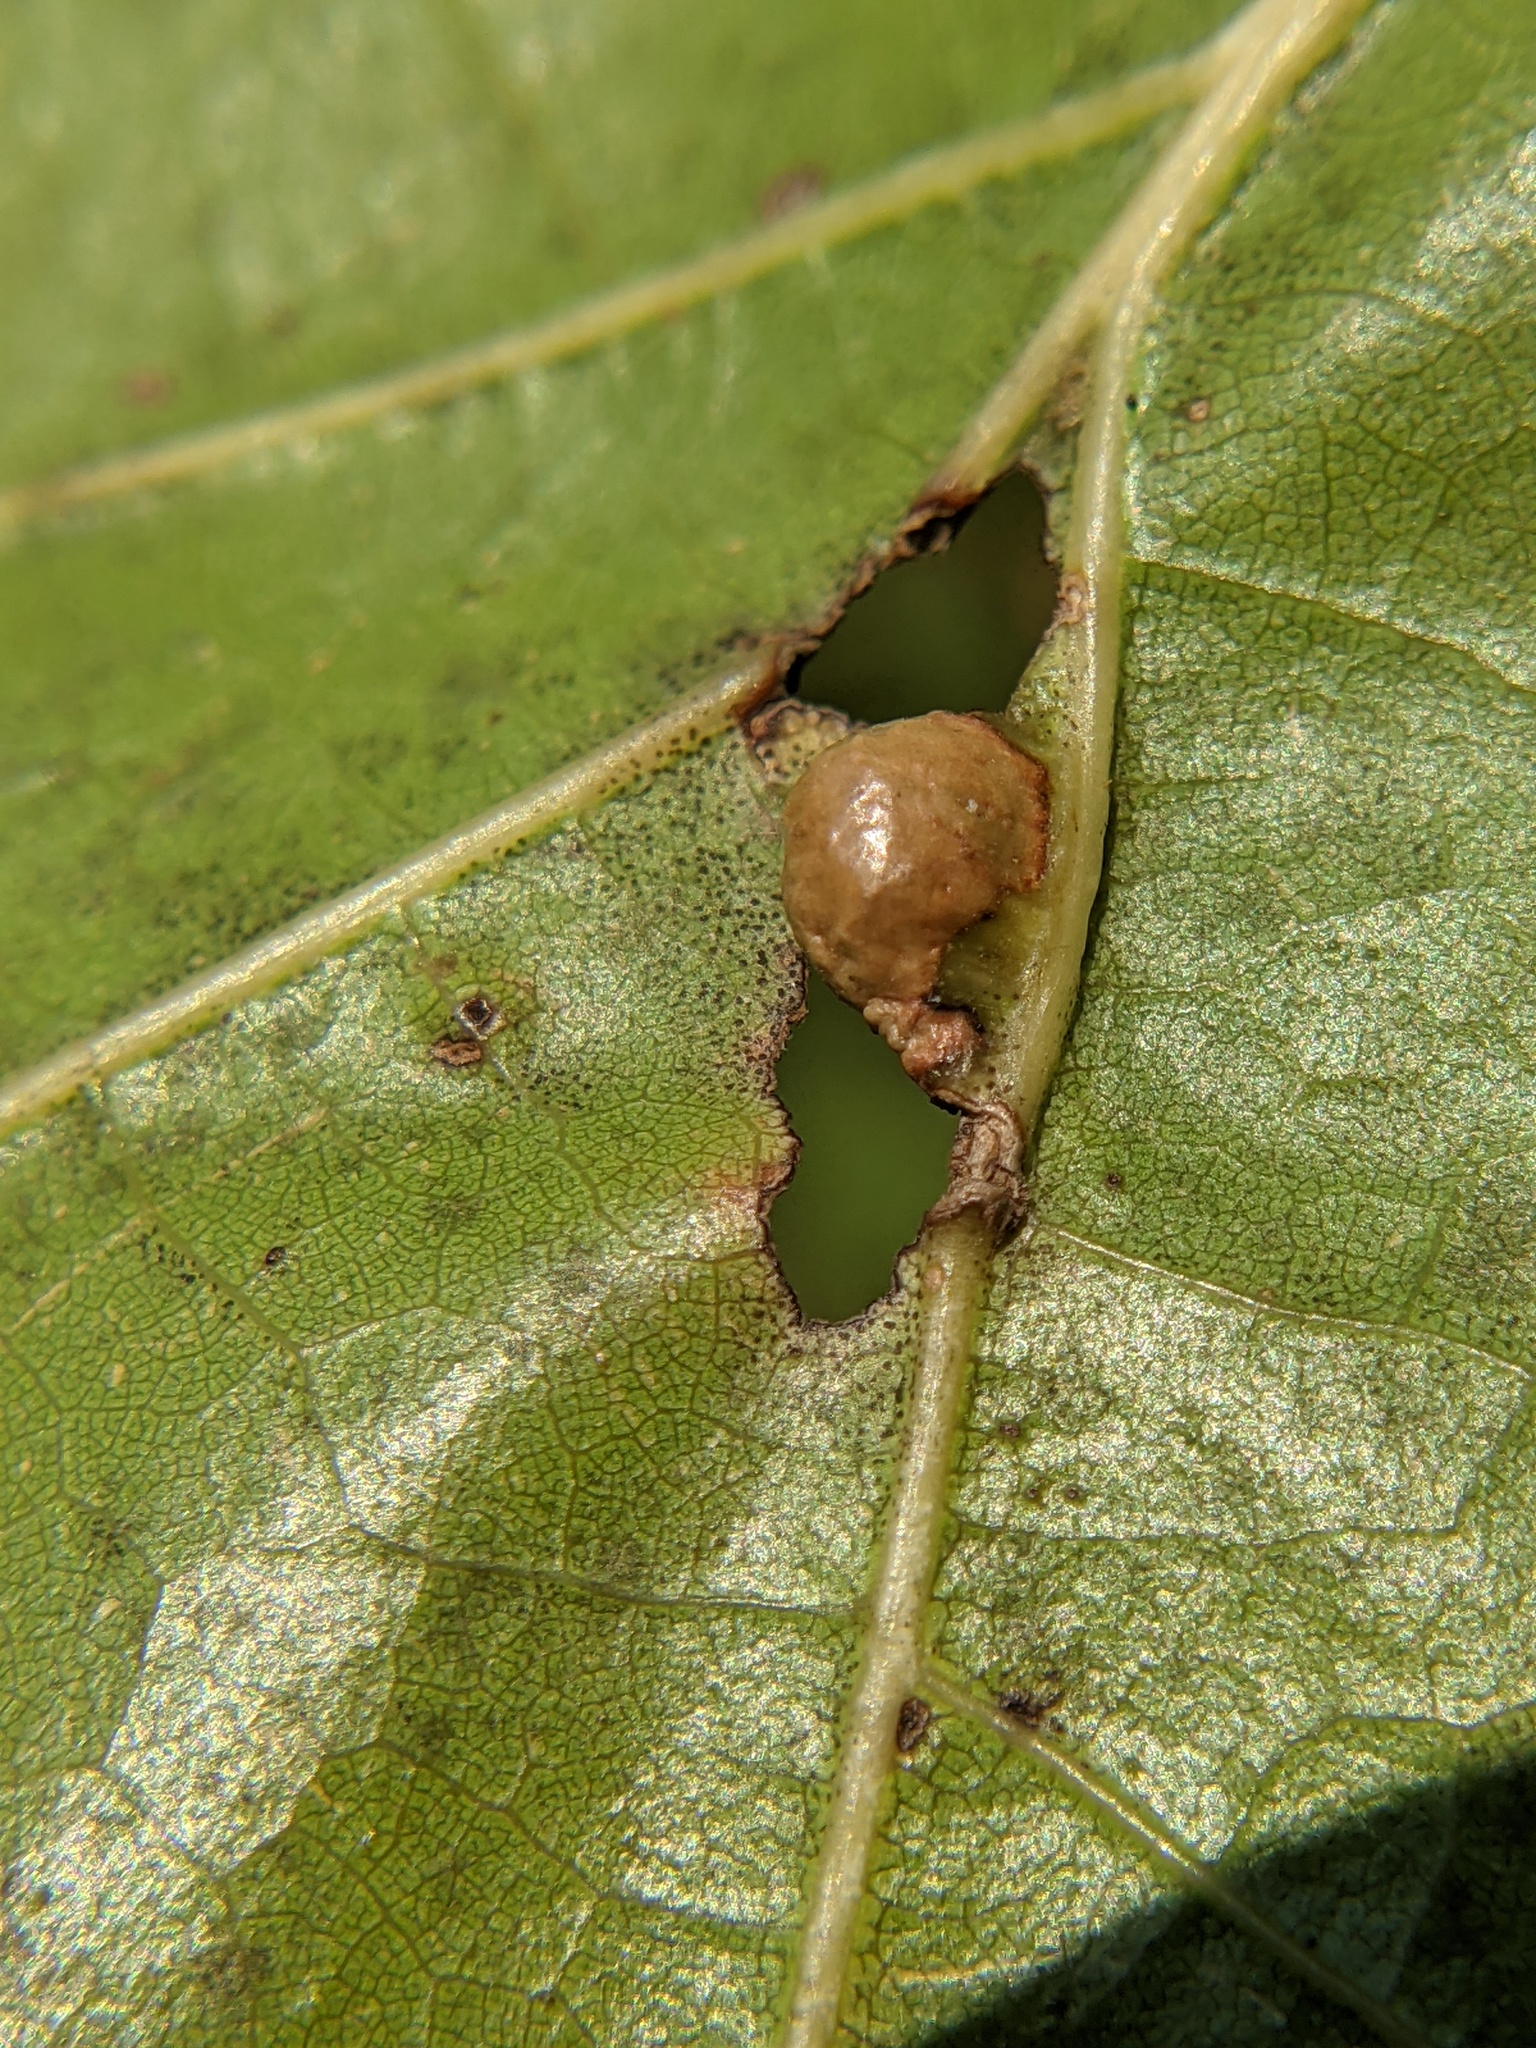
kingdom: Animalia
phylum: Arthropoda
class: Insecta
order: Diptera
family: Cecidomyiidae
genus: Macrodiplosis
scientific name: Macrodiplosis majalis
